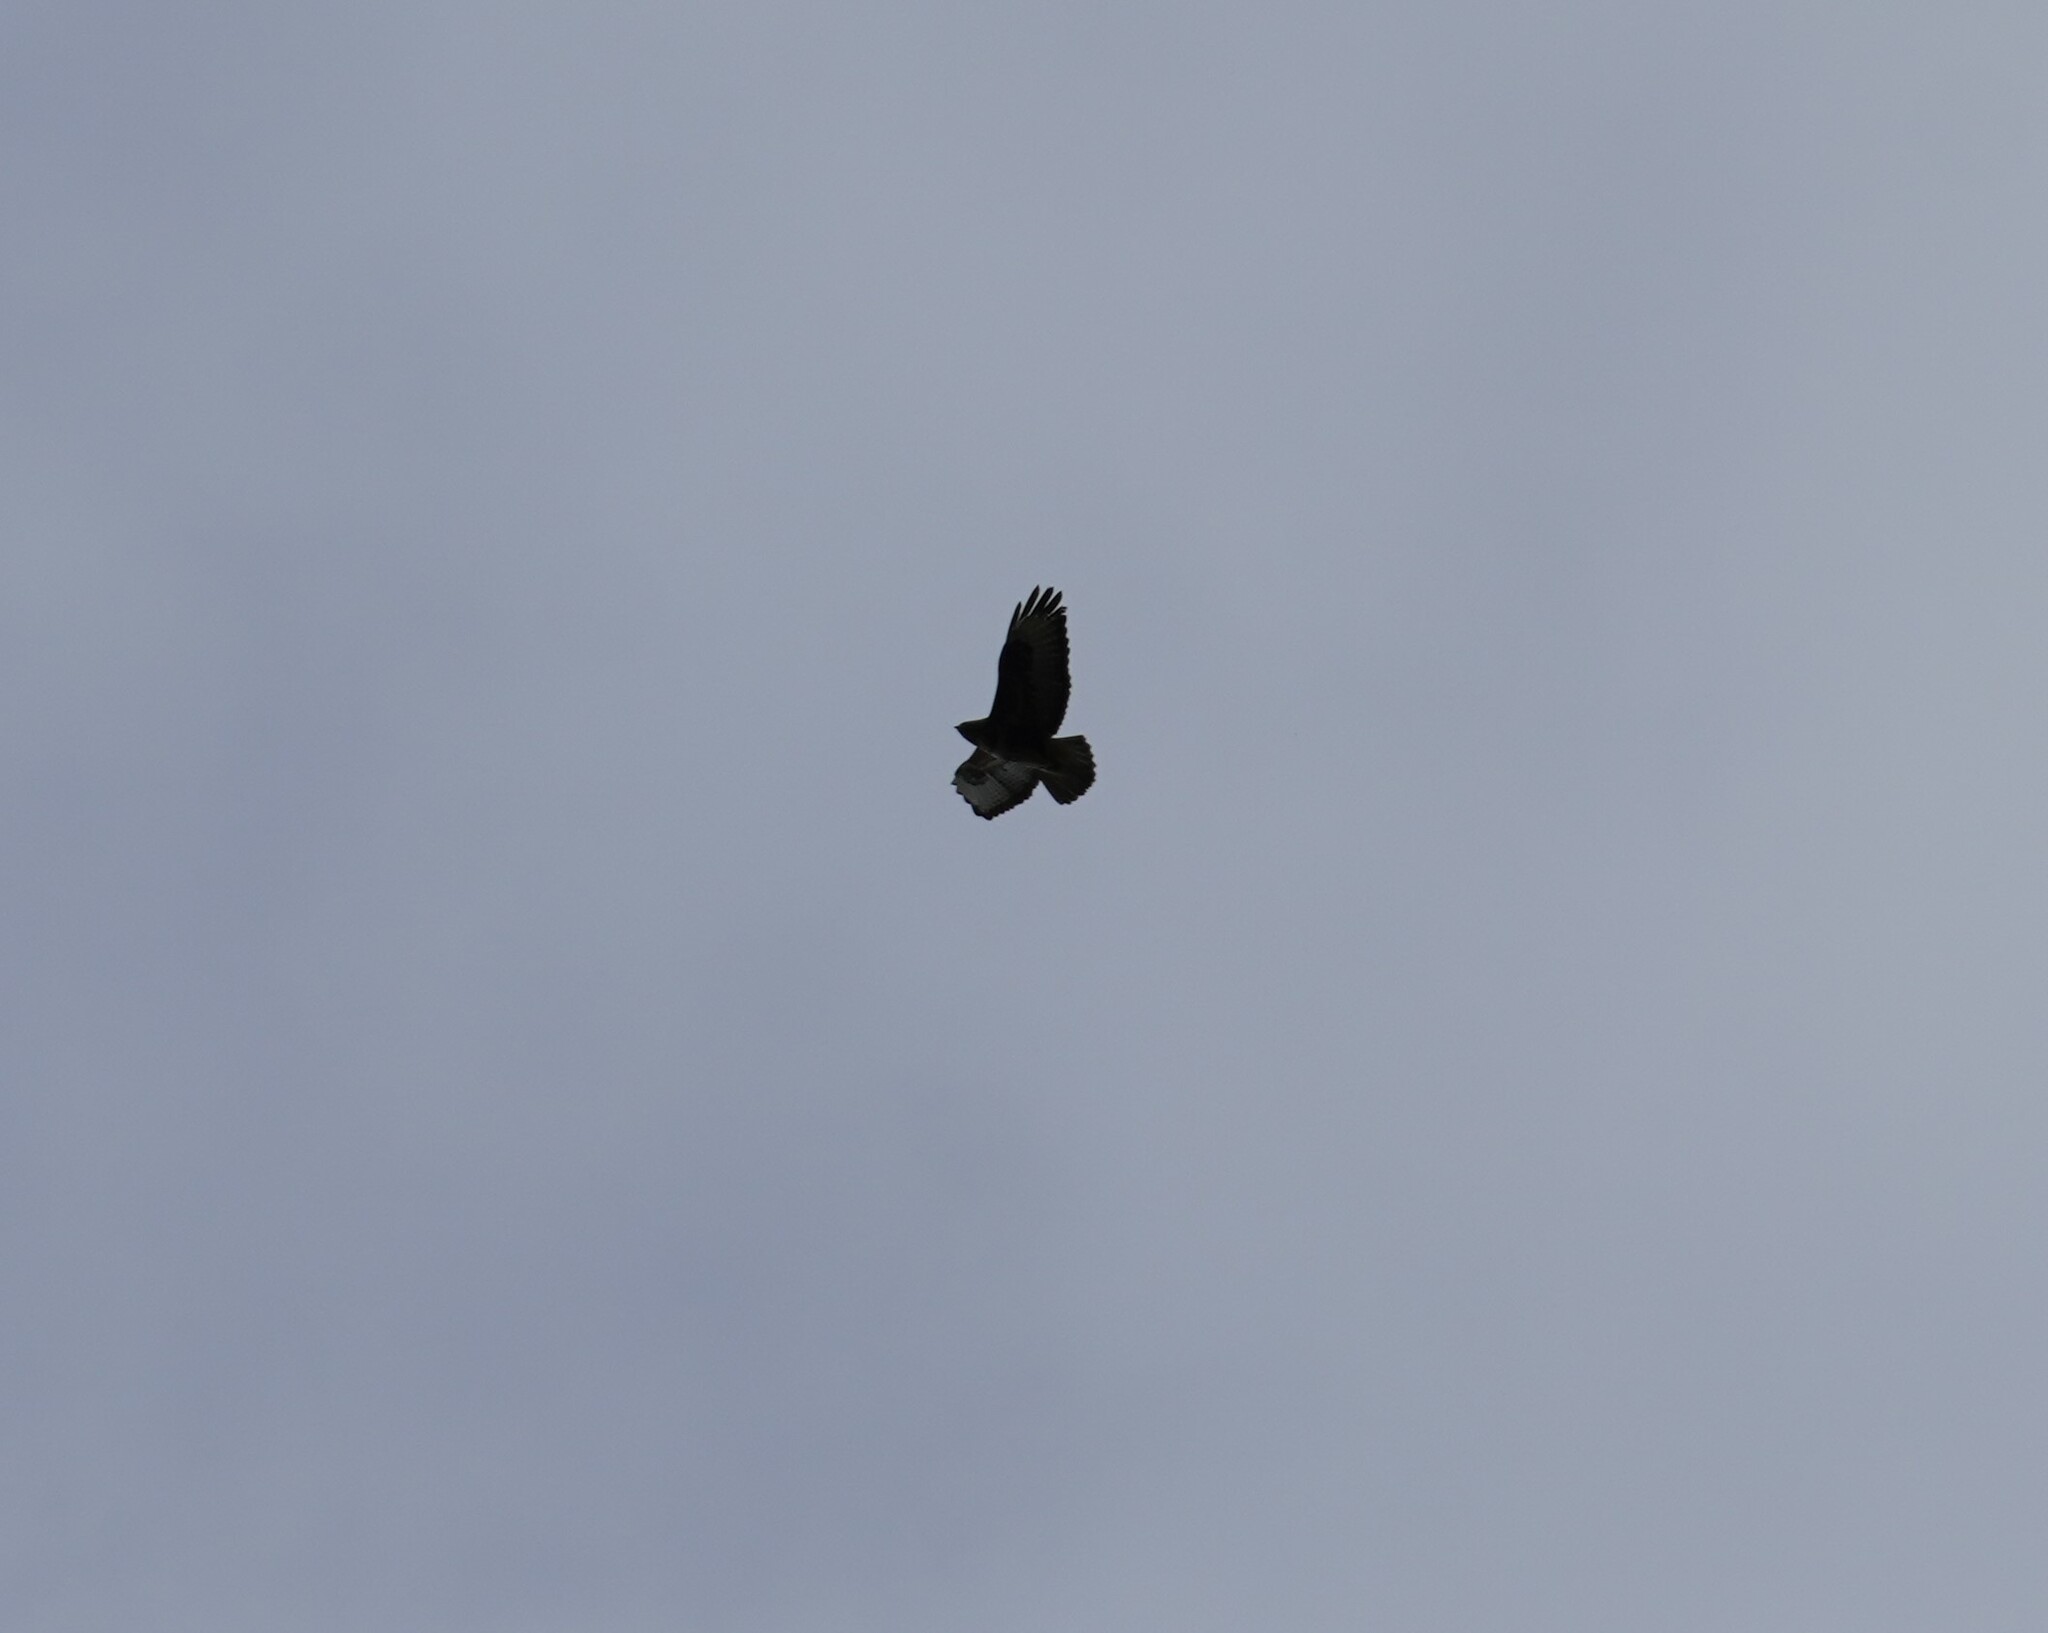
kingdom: Animalia
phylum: Chordata
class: Aves
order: Accipitriformes
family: Accipitridae
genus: Buteo
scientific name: Buteo buteo
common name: Common buzzard
